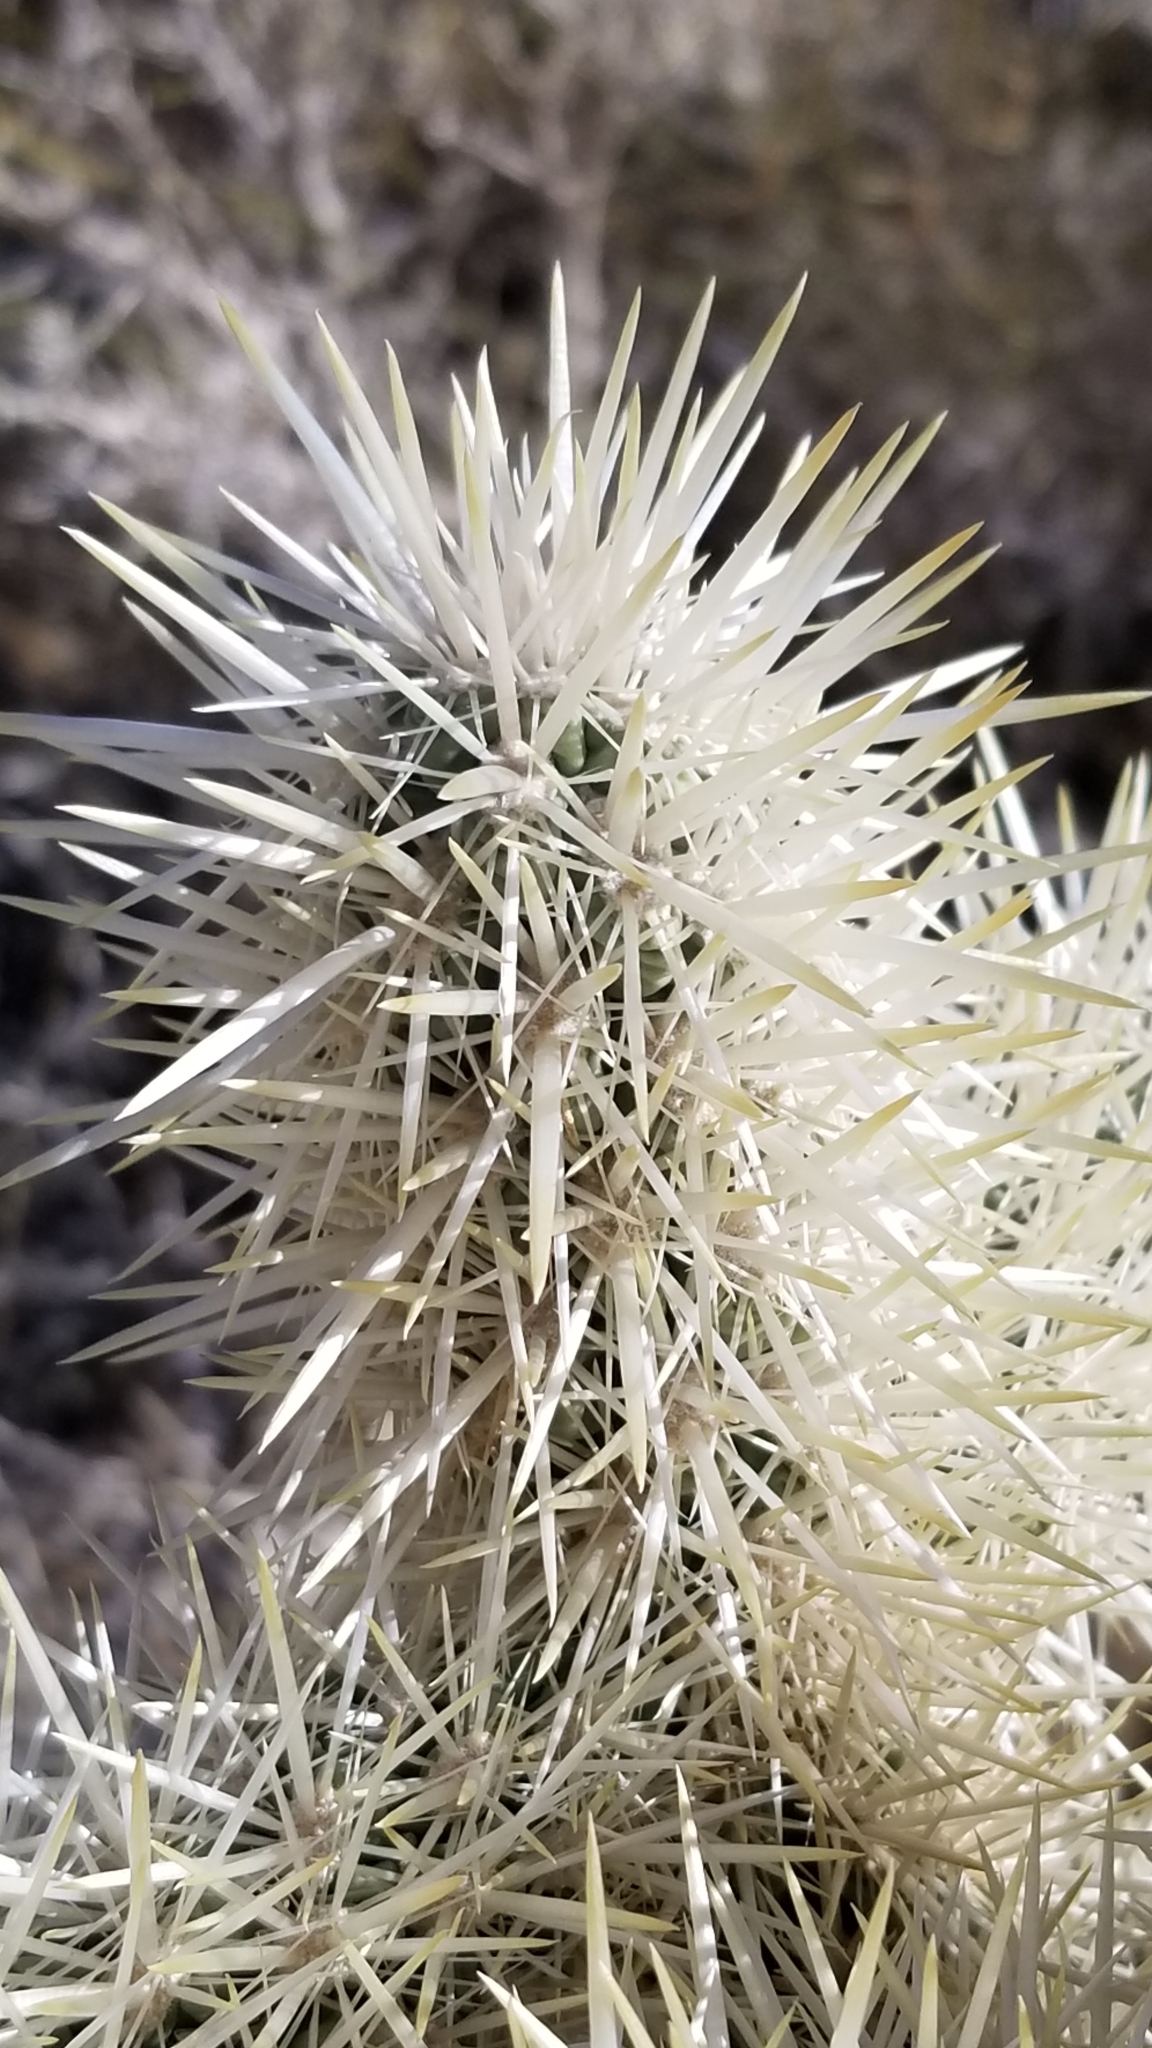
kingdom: Plantae
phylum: Tracheophyta
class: Magnoliopsida
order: Caryophyllales
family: Cactaceae
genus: Cylindropuntia
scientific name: Cylindropuntia fosbergii
